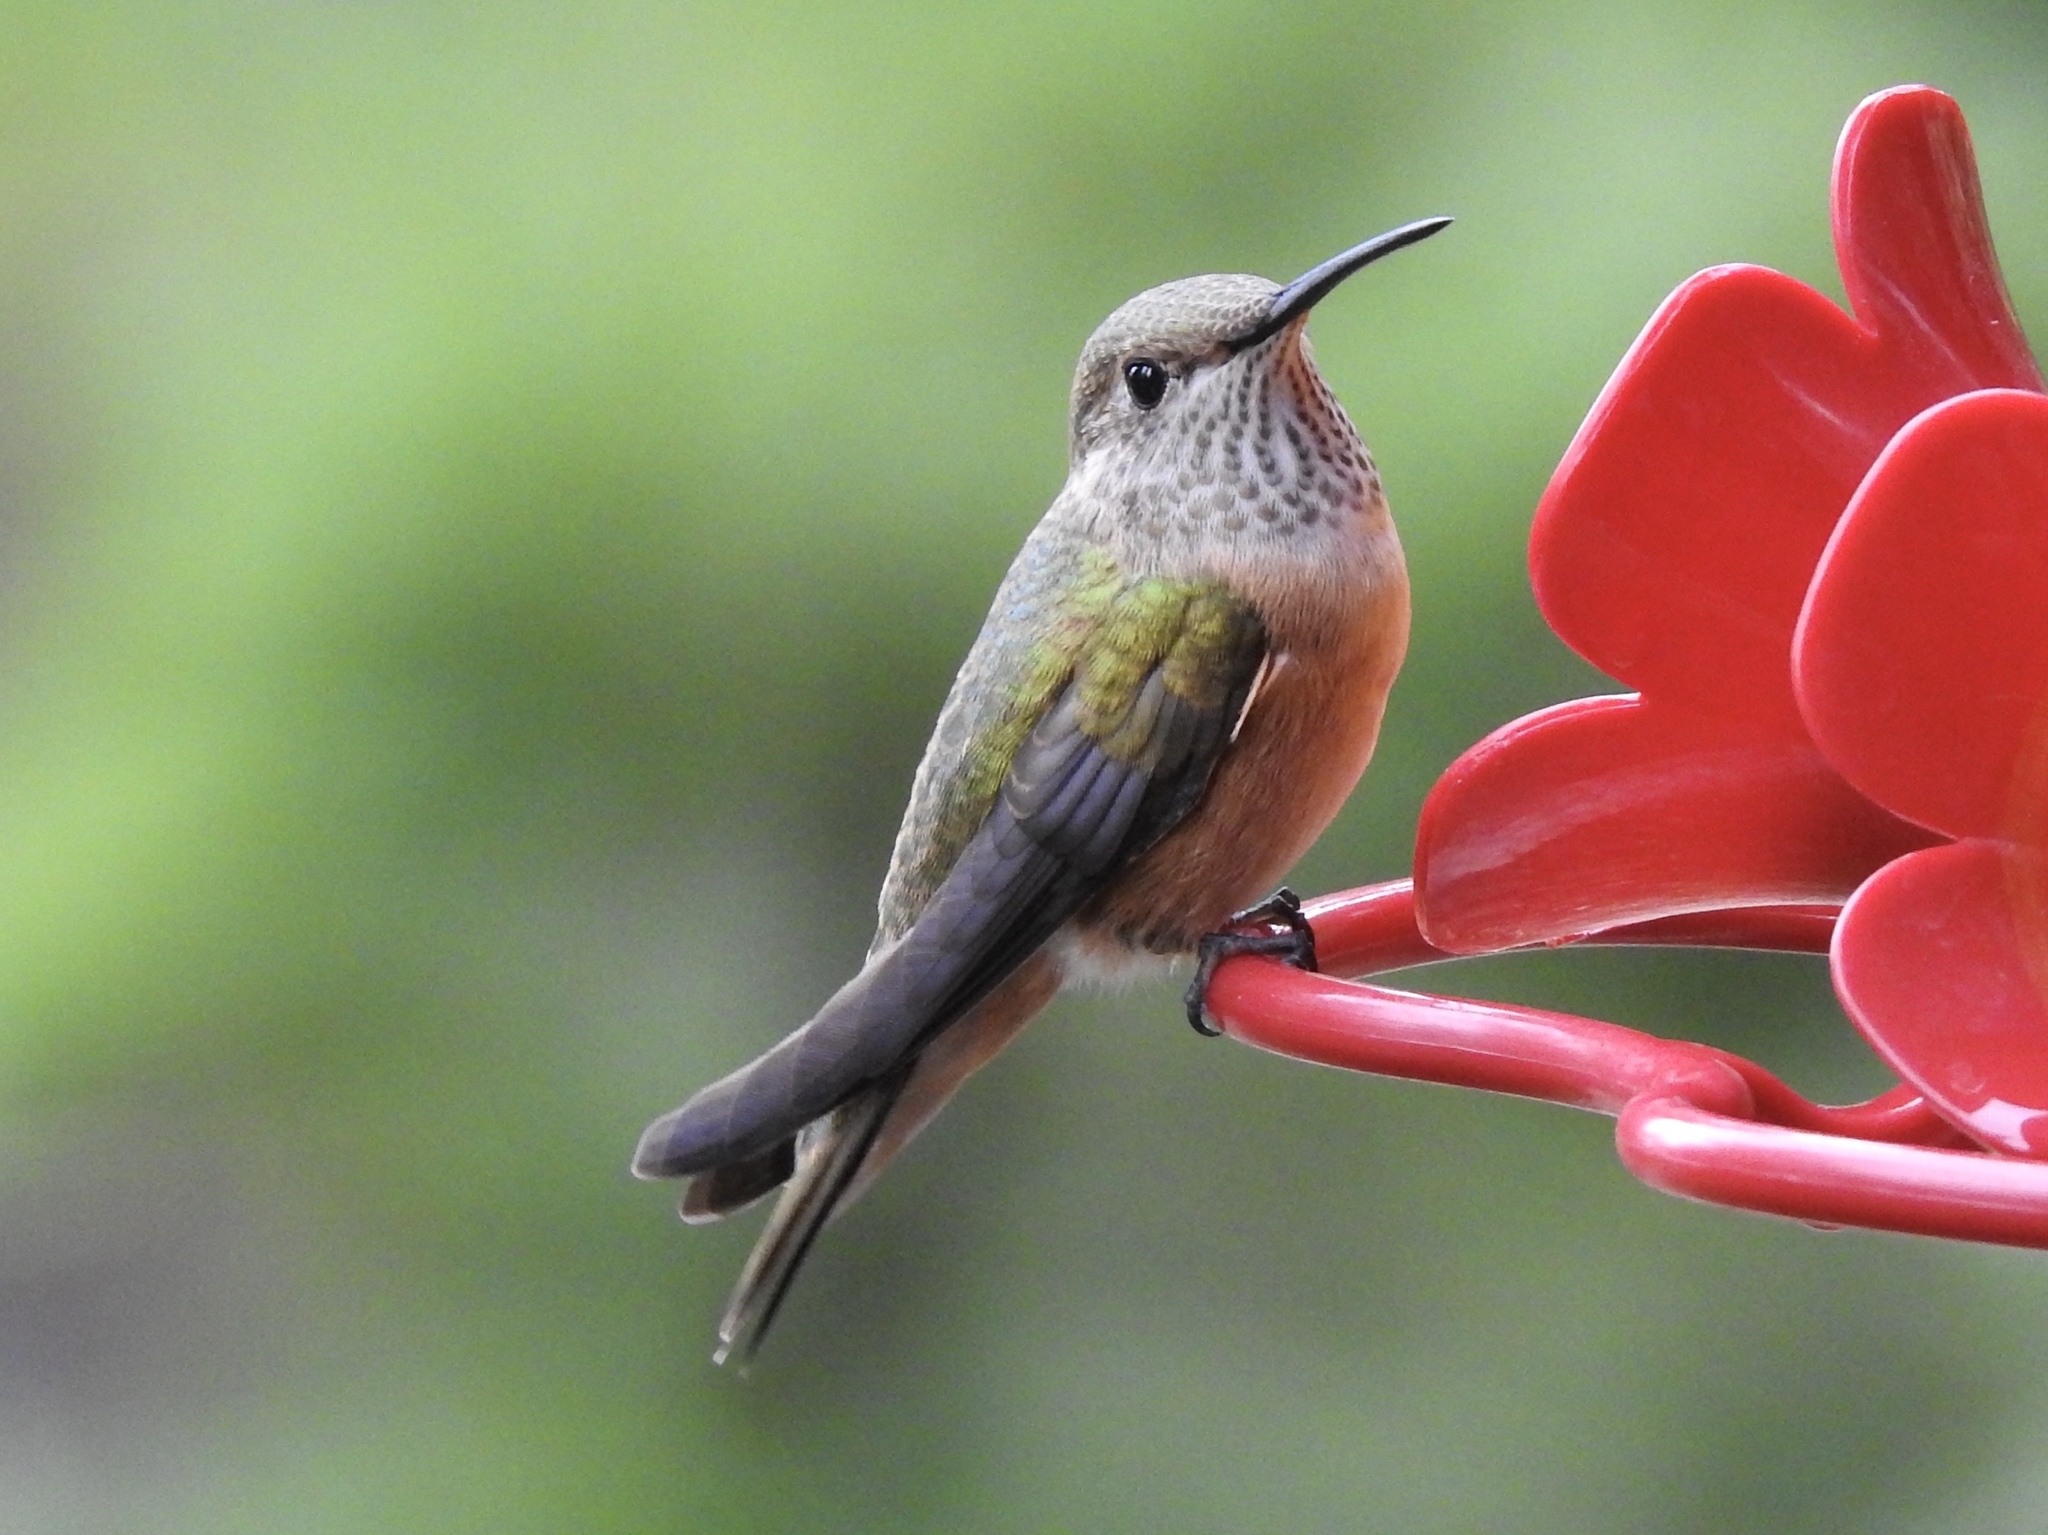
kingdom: Animalia
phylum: Chordata
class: Aves
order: Apodiformes
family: Trochilidae
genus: Selasphorus
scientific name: Selasphorus platycercus
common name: Broad-tailed hummingbird
